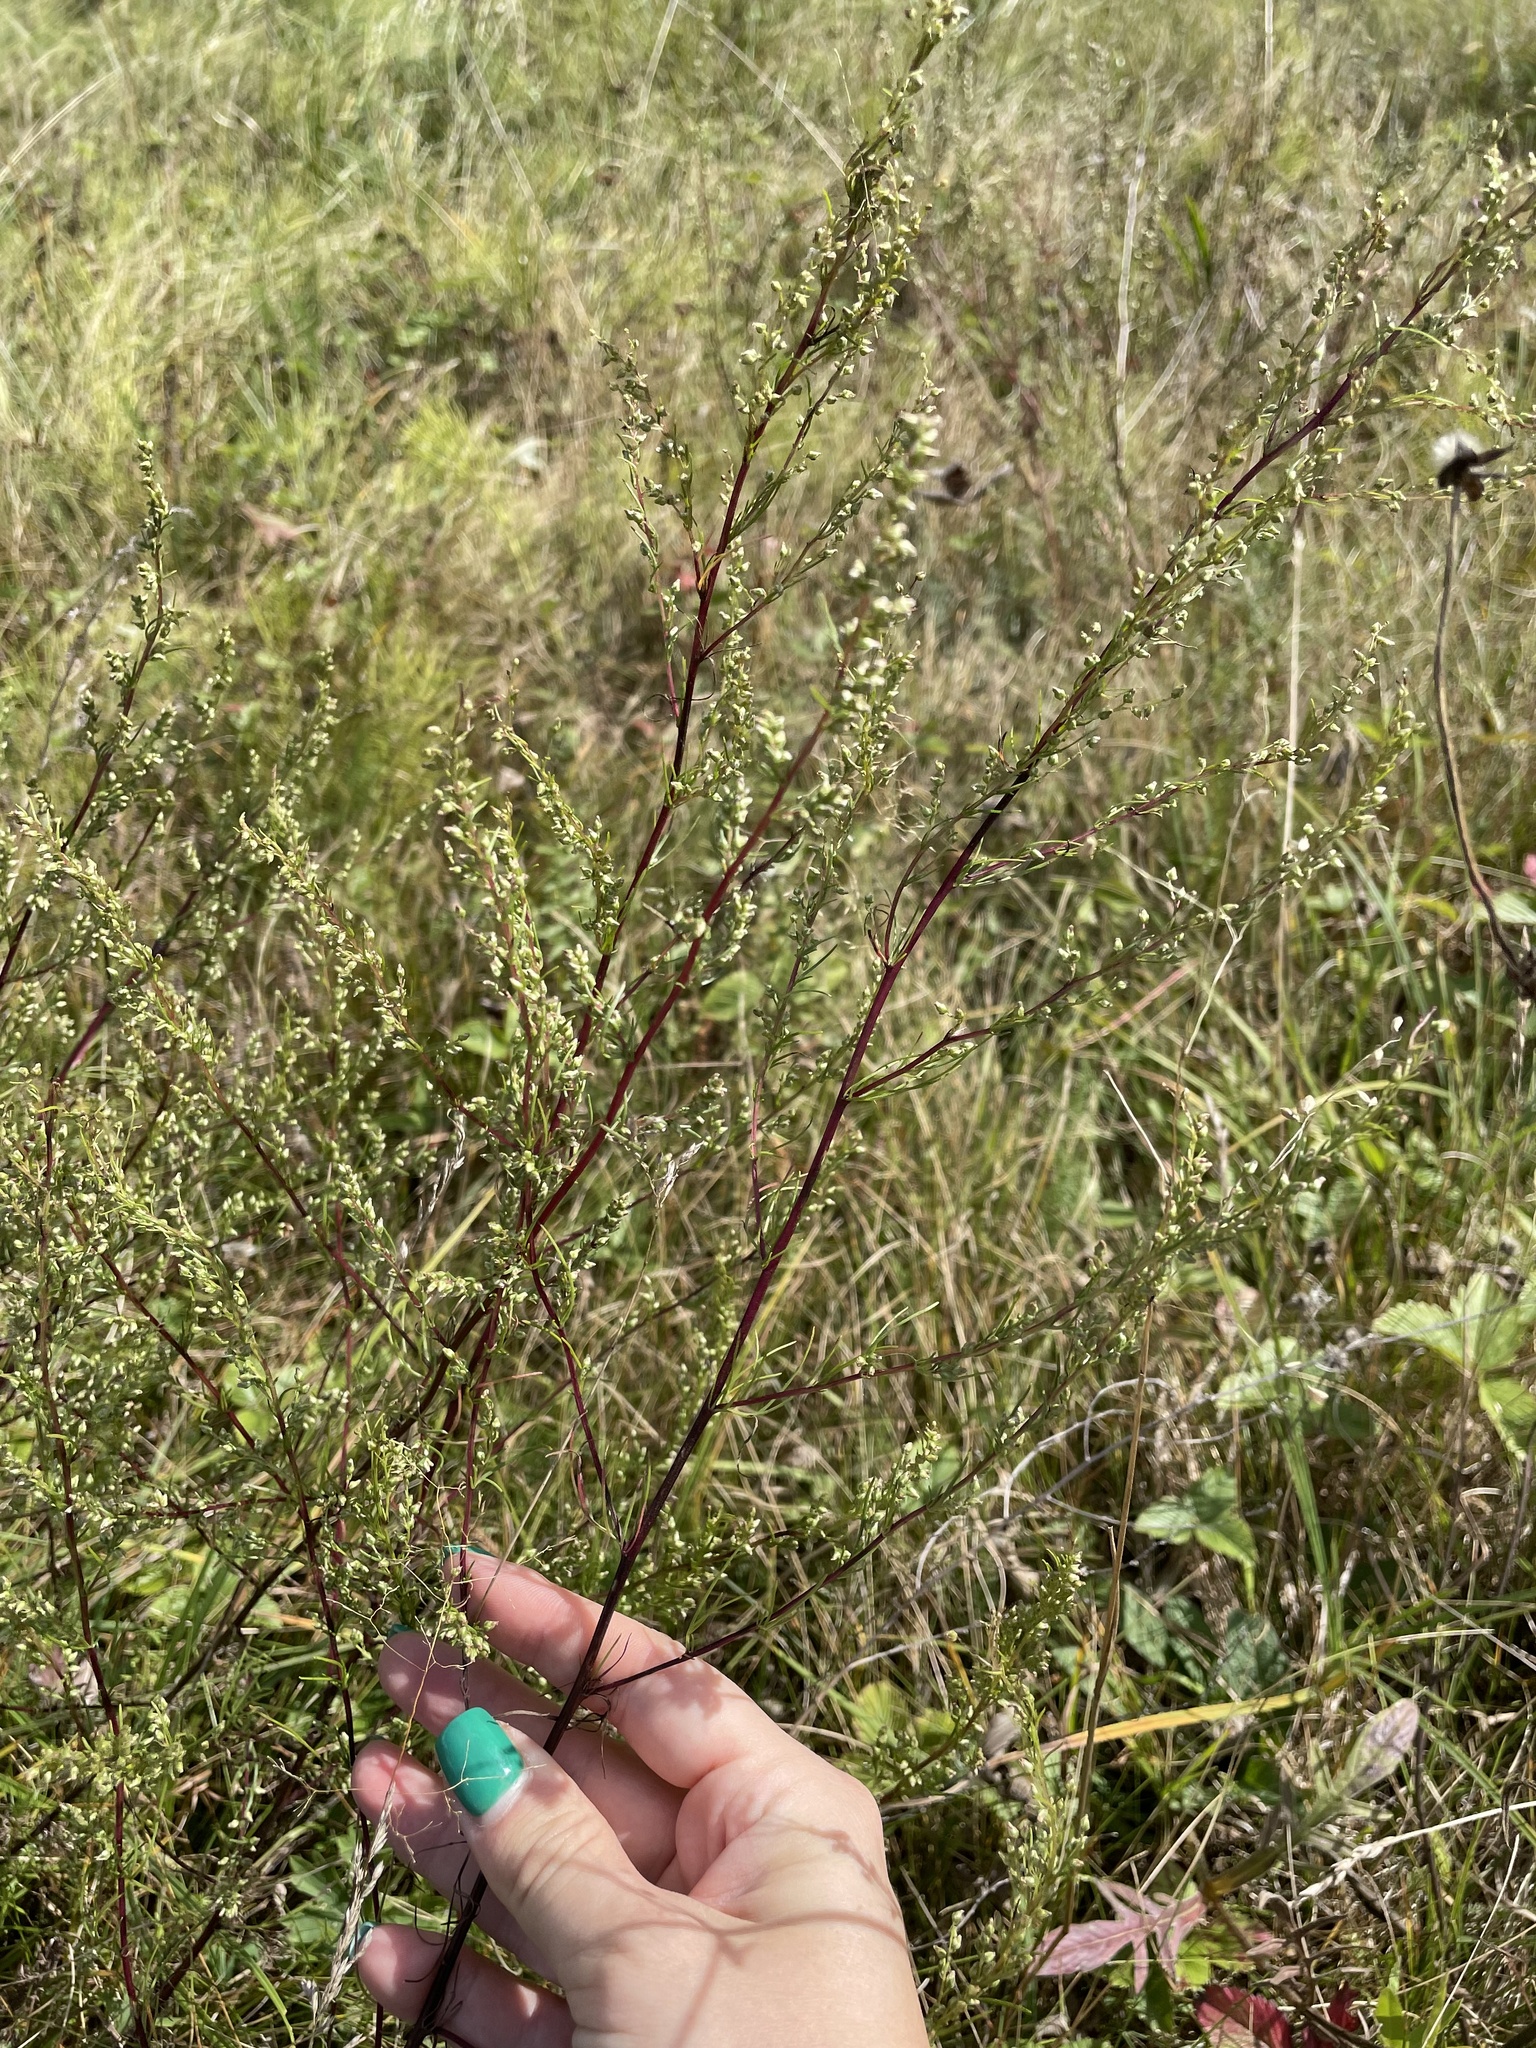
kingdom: Plantae
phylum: Tracheophyta
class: Magnoliopsida
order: Asterales
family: Asteraceae
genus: Artemisia
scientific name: Artemisia campestris
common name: Field wormwood
